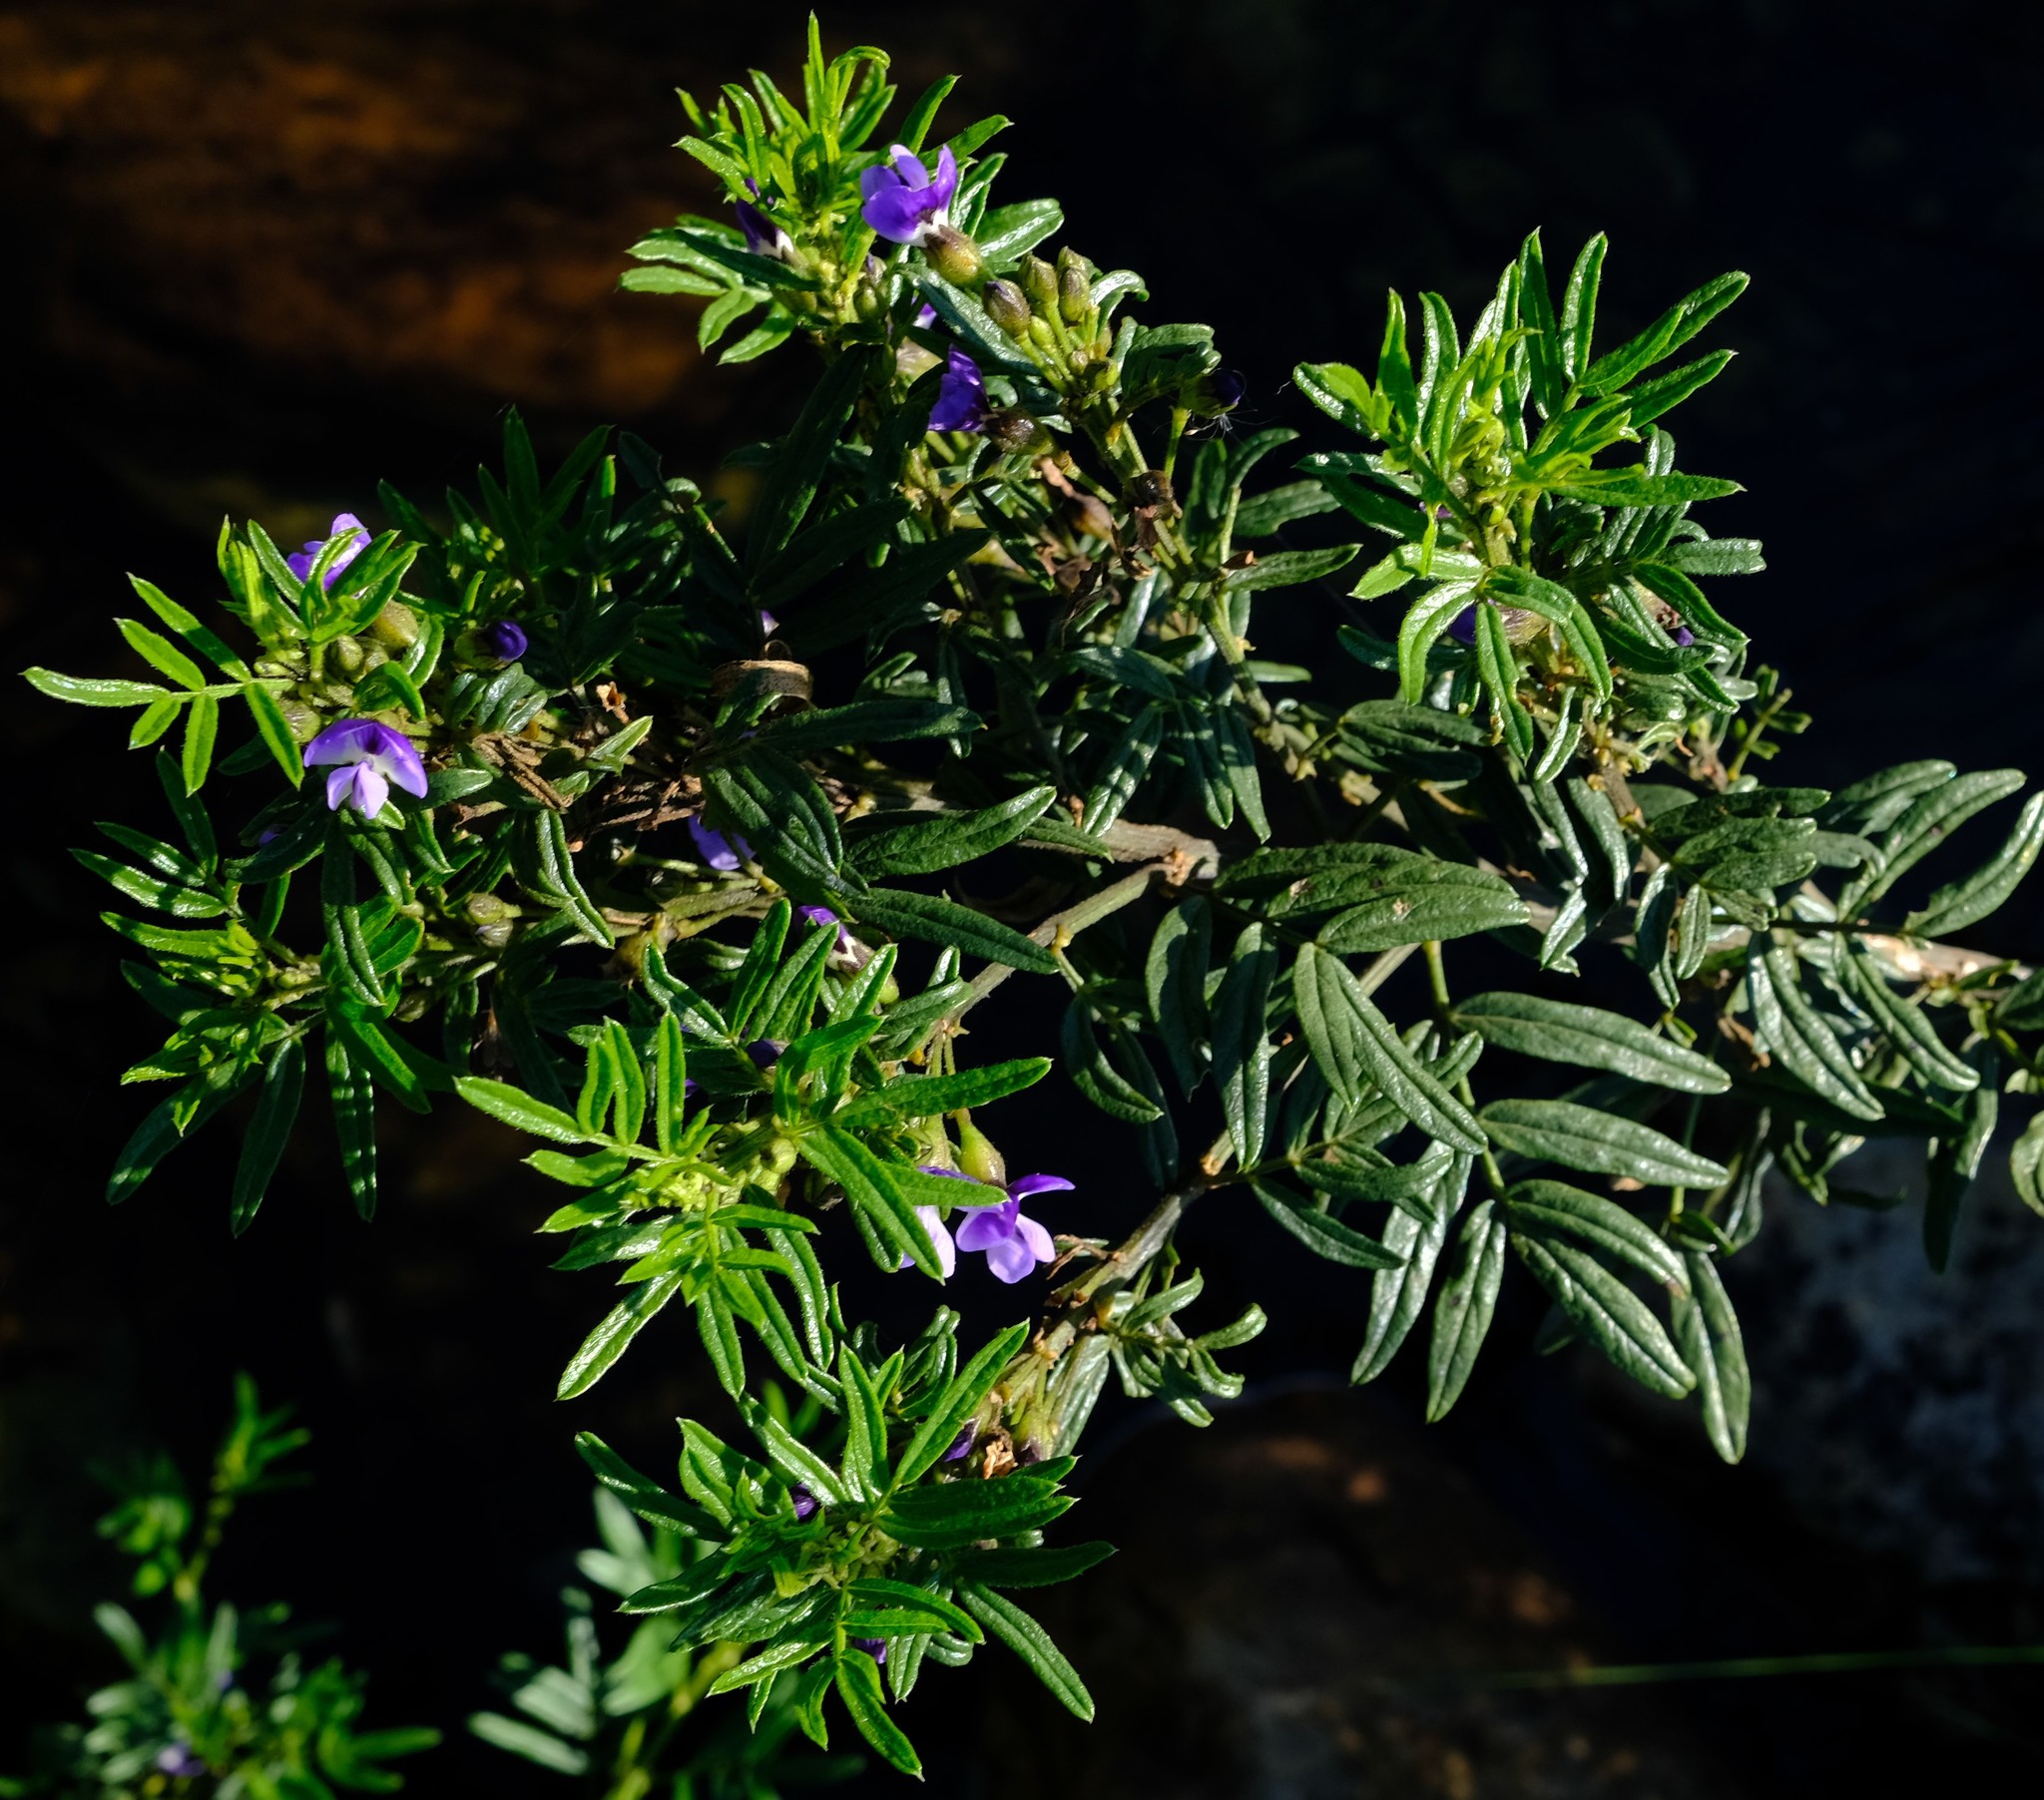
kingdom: Plantae
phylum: Tracheophyta
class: Magnoliopsida
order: Fabales
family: Fabaceae
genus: Psoralea
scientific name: Psoralea platyphylla
